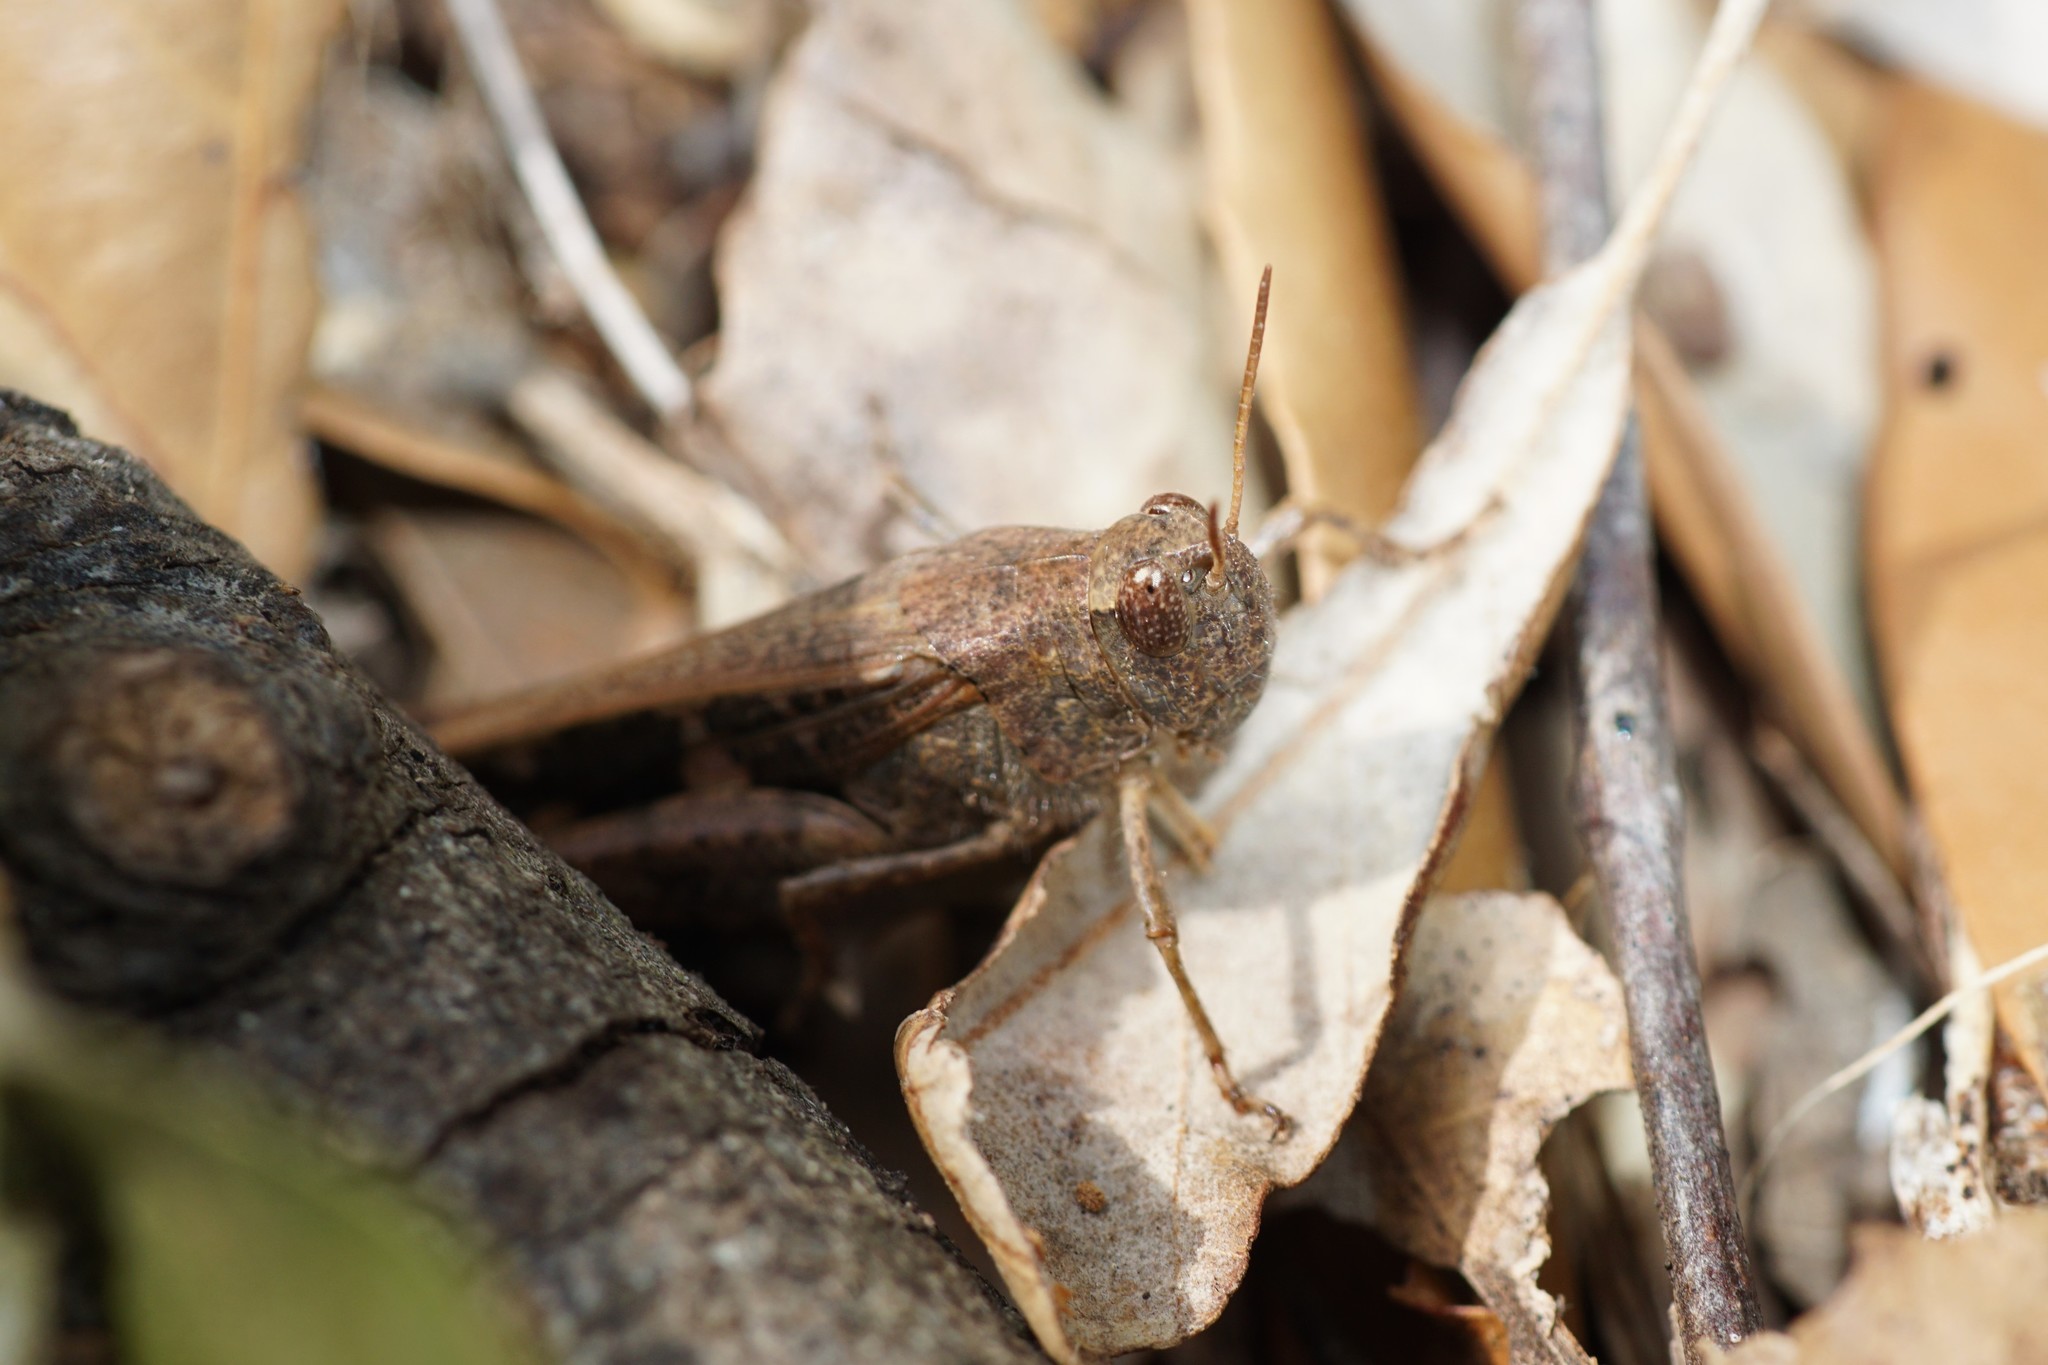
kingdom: Animalia
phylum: Arthropoda
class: Insecta
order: Orthoptera
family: Acrididae
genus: Aiolopus
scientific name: Aiolopus strepens
